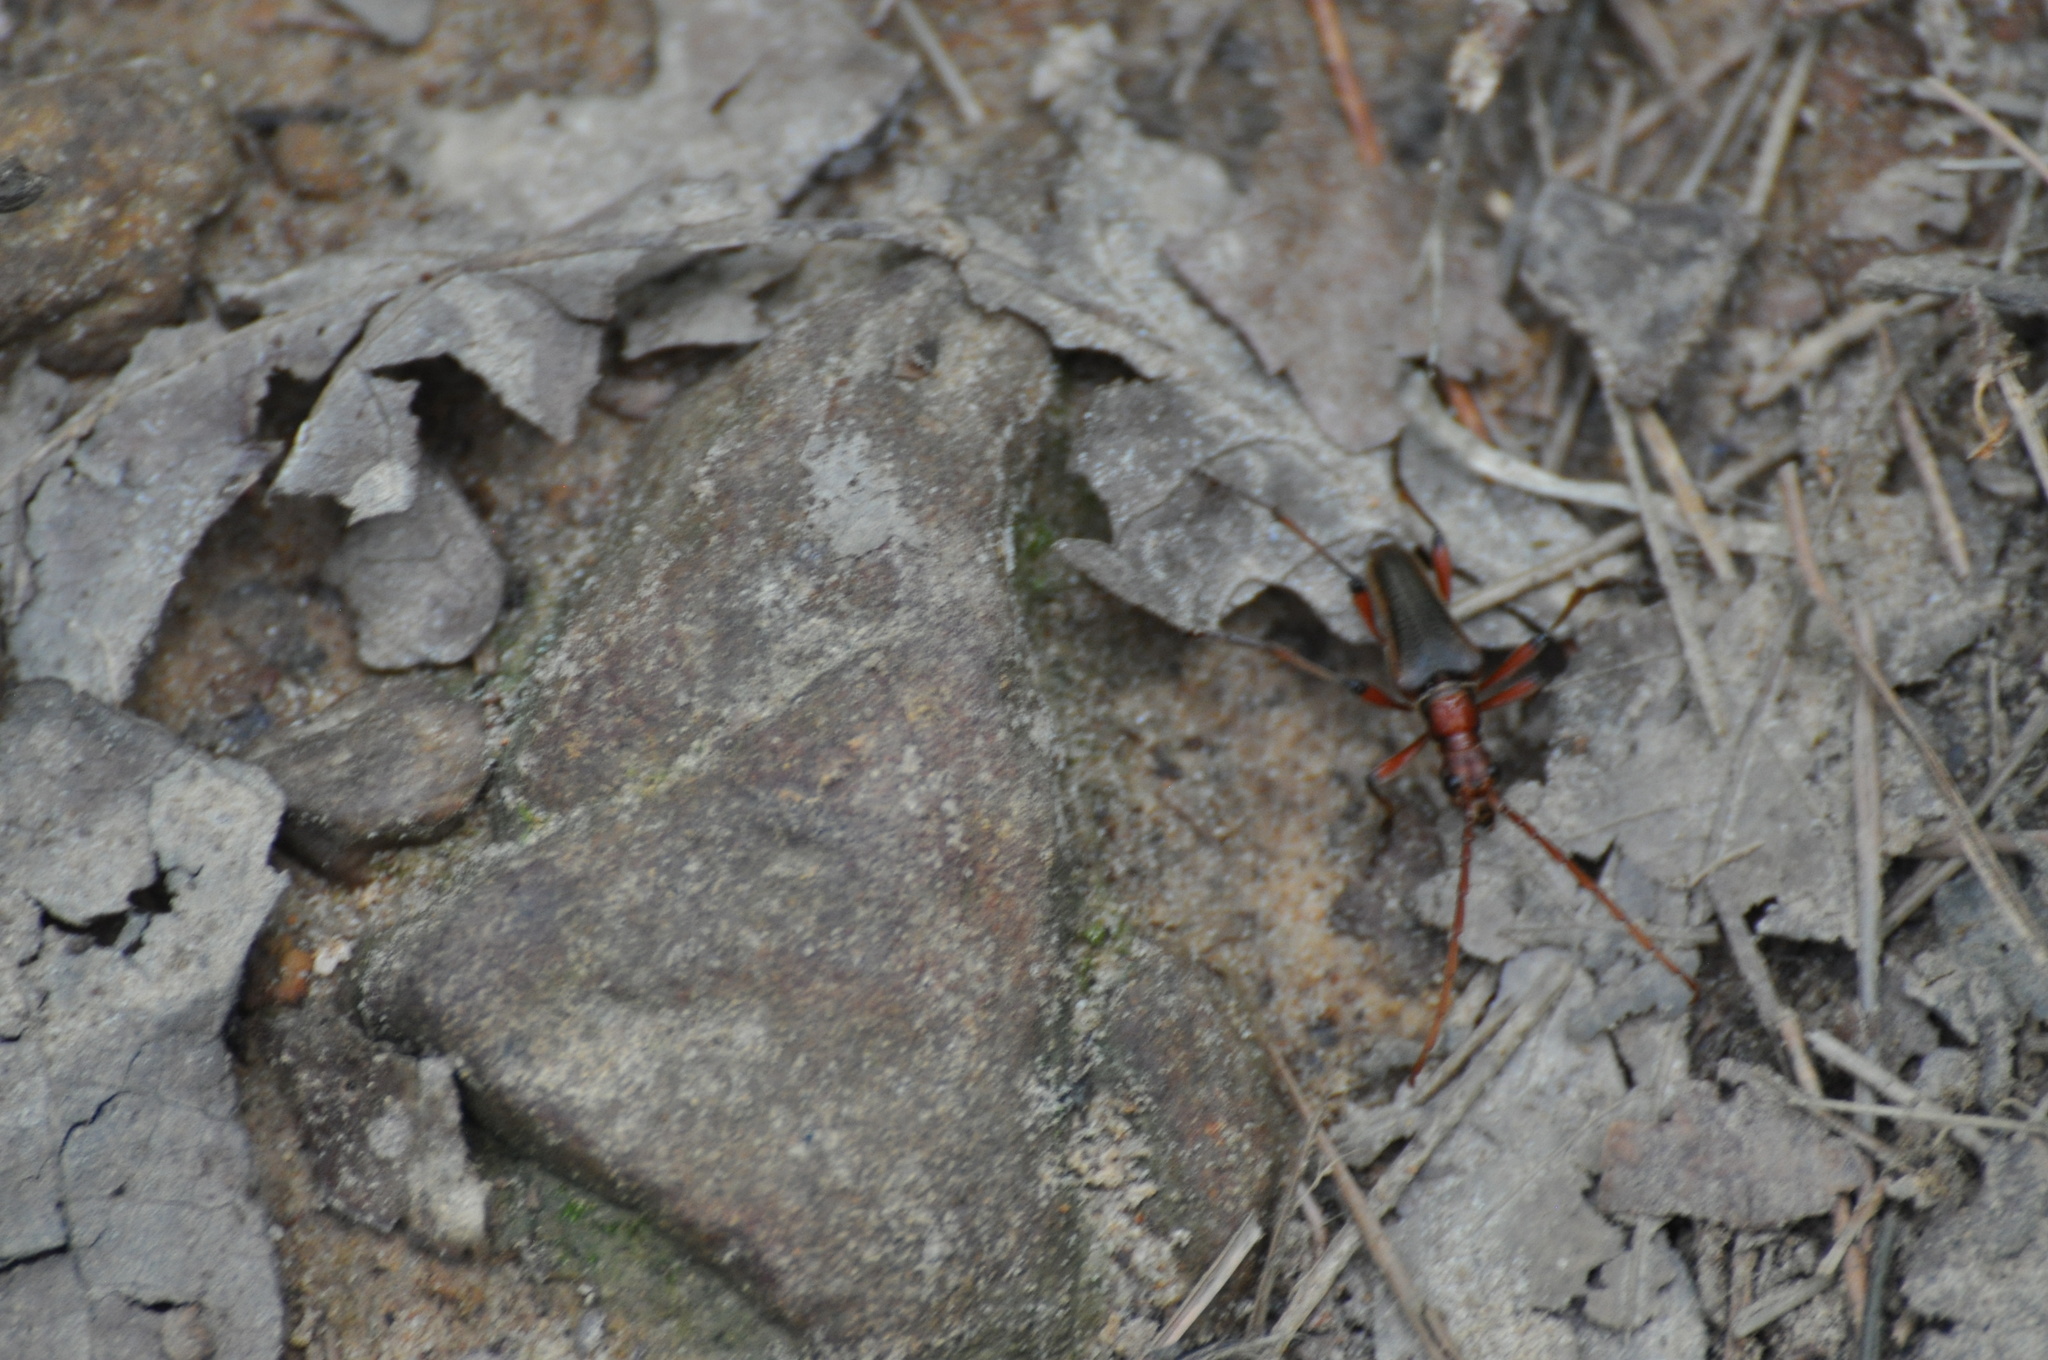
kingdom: Animalia
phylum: Arthropoda
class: Insecta
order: Coleoptera
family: Cerambycidae
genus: Stenocorus
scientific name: Stenocorus cylindricollis
